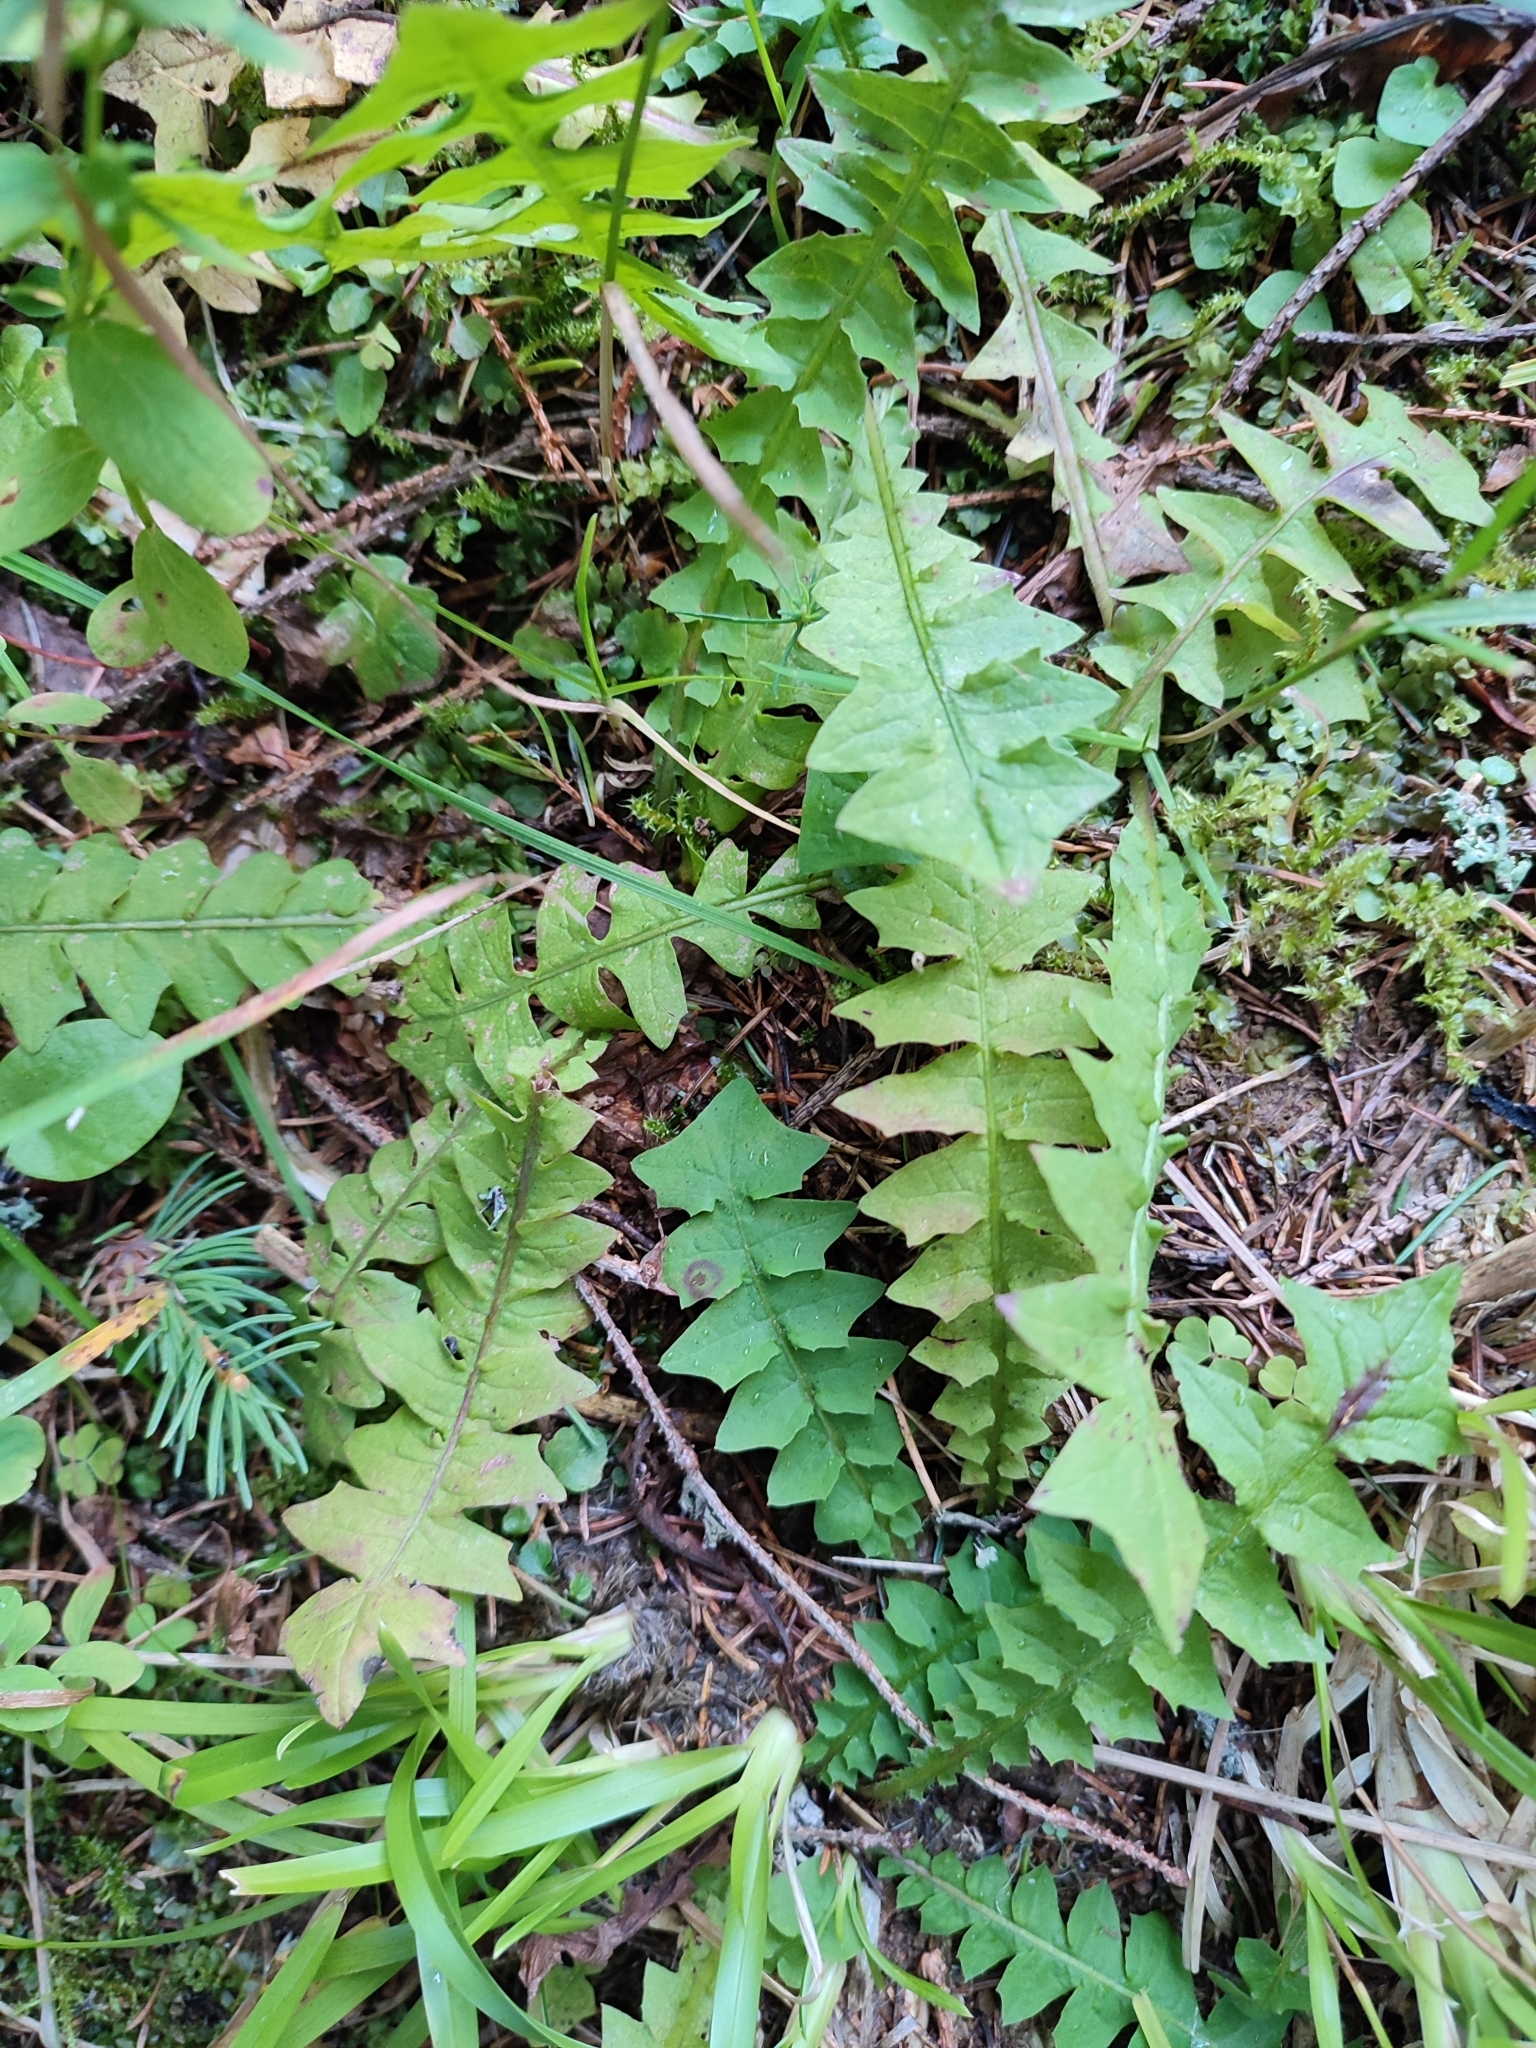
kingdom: Plantae
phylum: Tracheophyta
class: Magnoliopsida
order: Asterales
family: Asteraceae
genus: Aposeris
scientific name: Aposeris foetida
